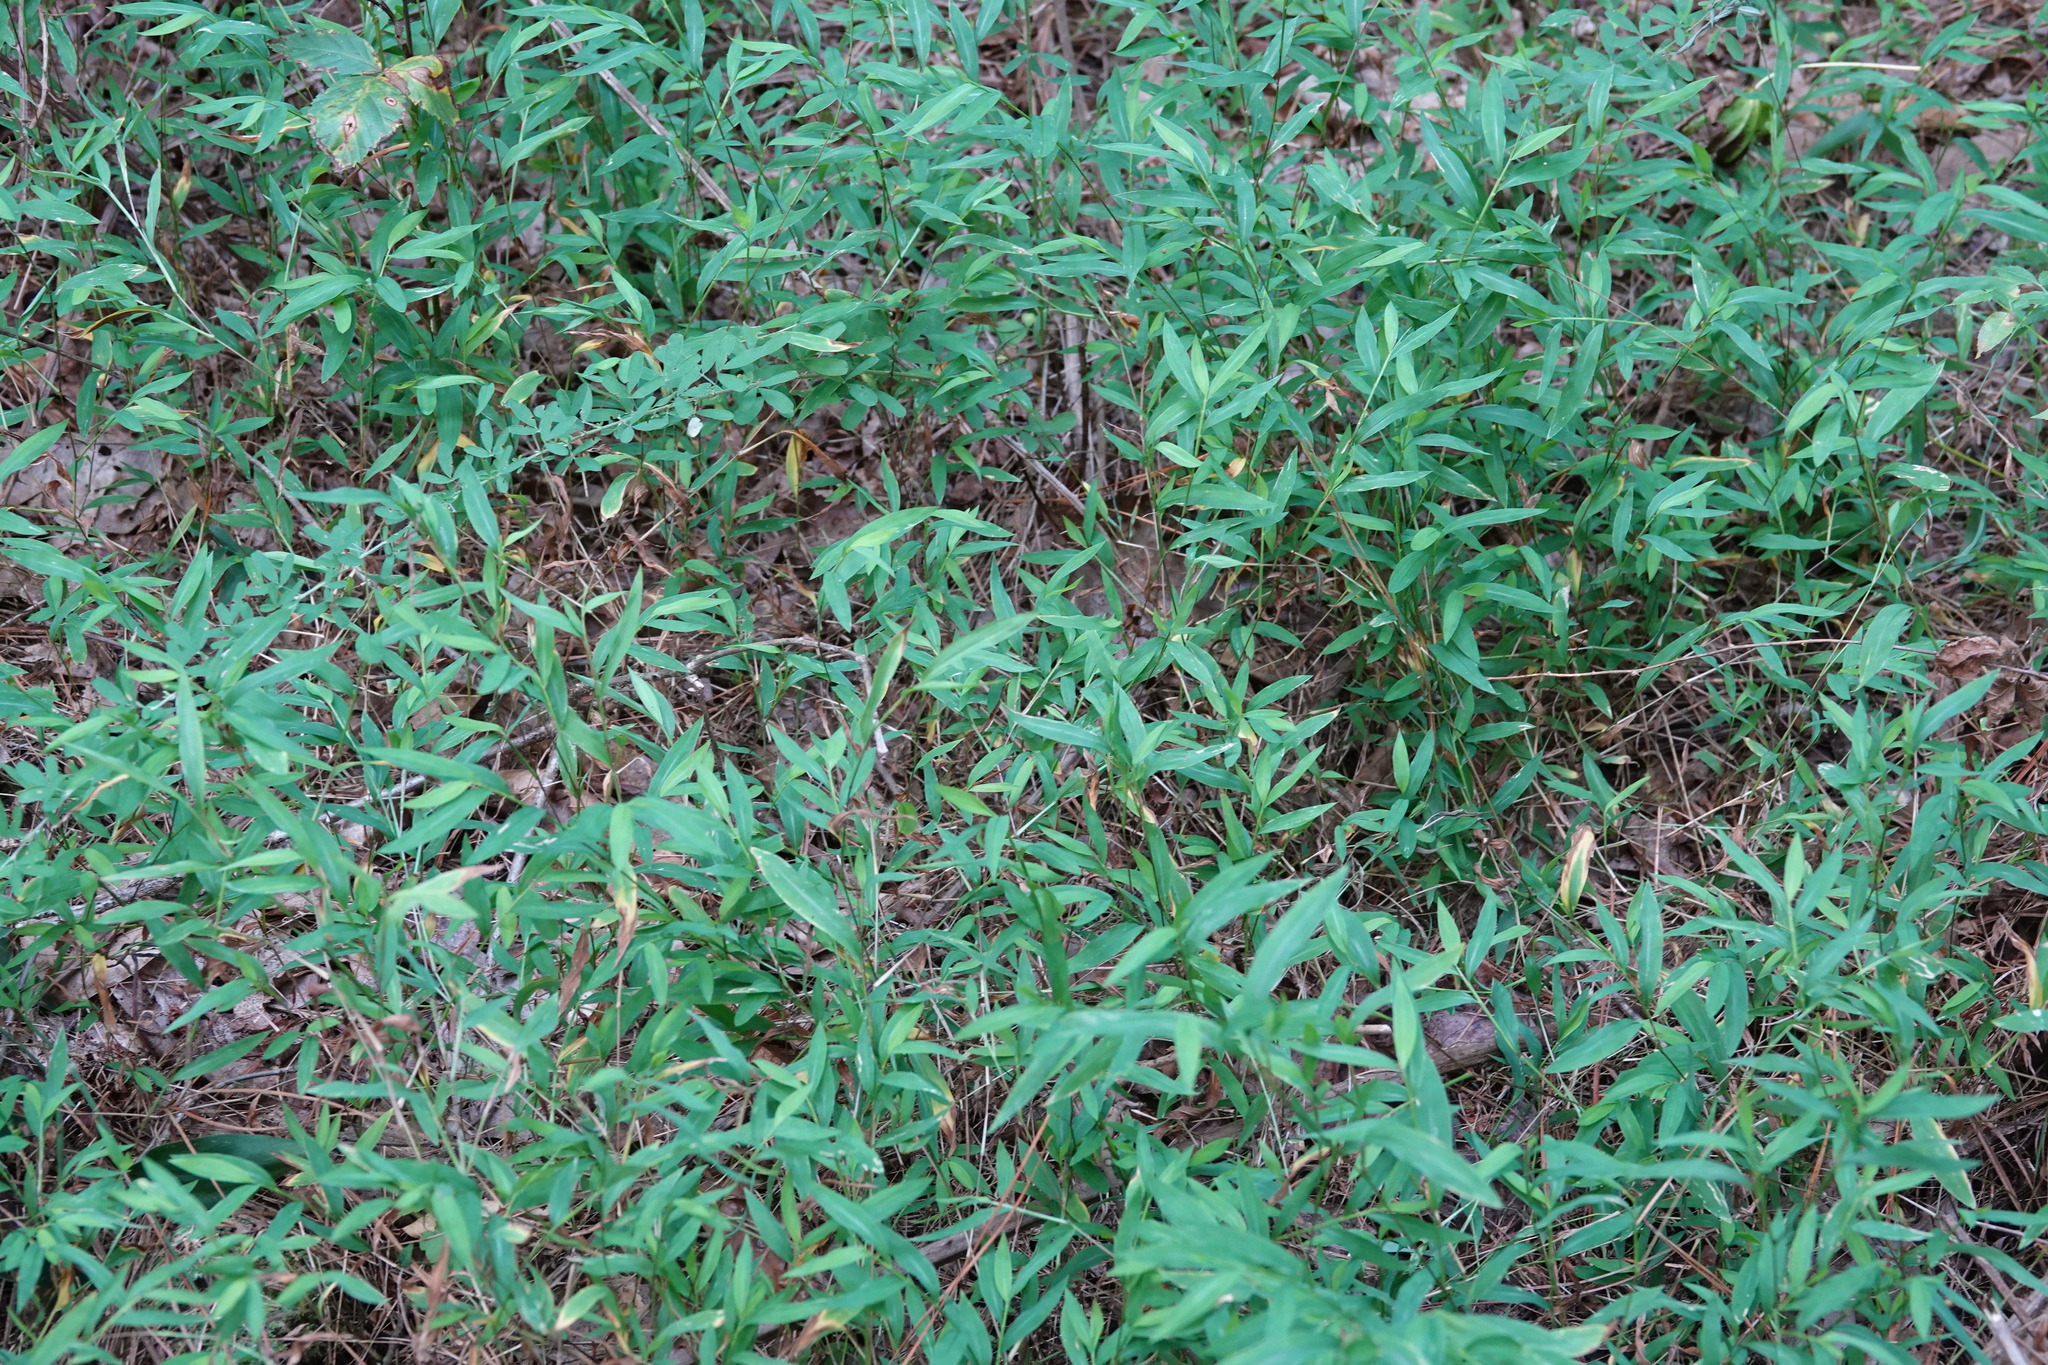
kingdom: Plantae
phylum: Tracheophyta
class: Liliopsida
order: Poales
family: Poaceae
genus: Microstegium
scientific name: Microstegium vimineum
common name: Japanese stiltgrass
